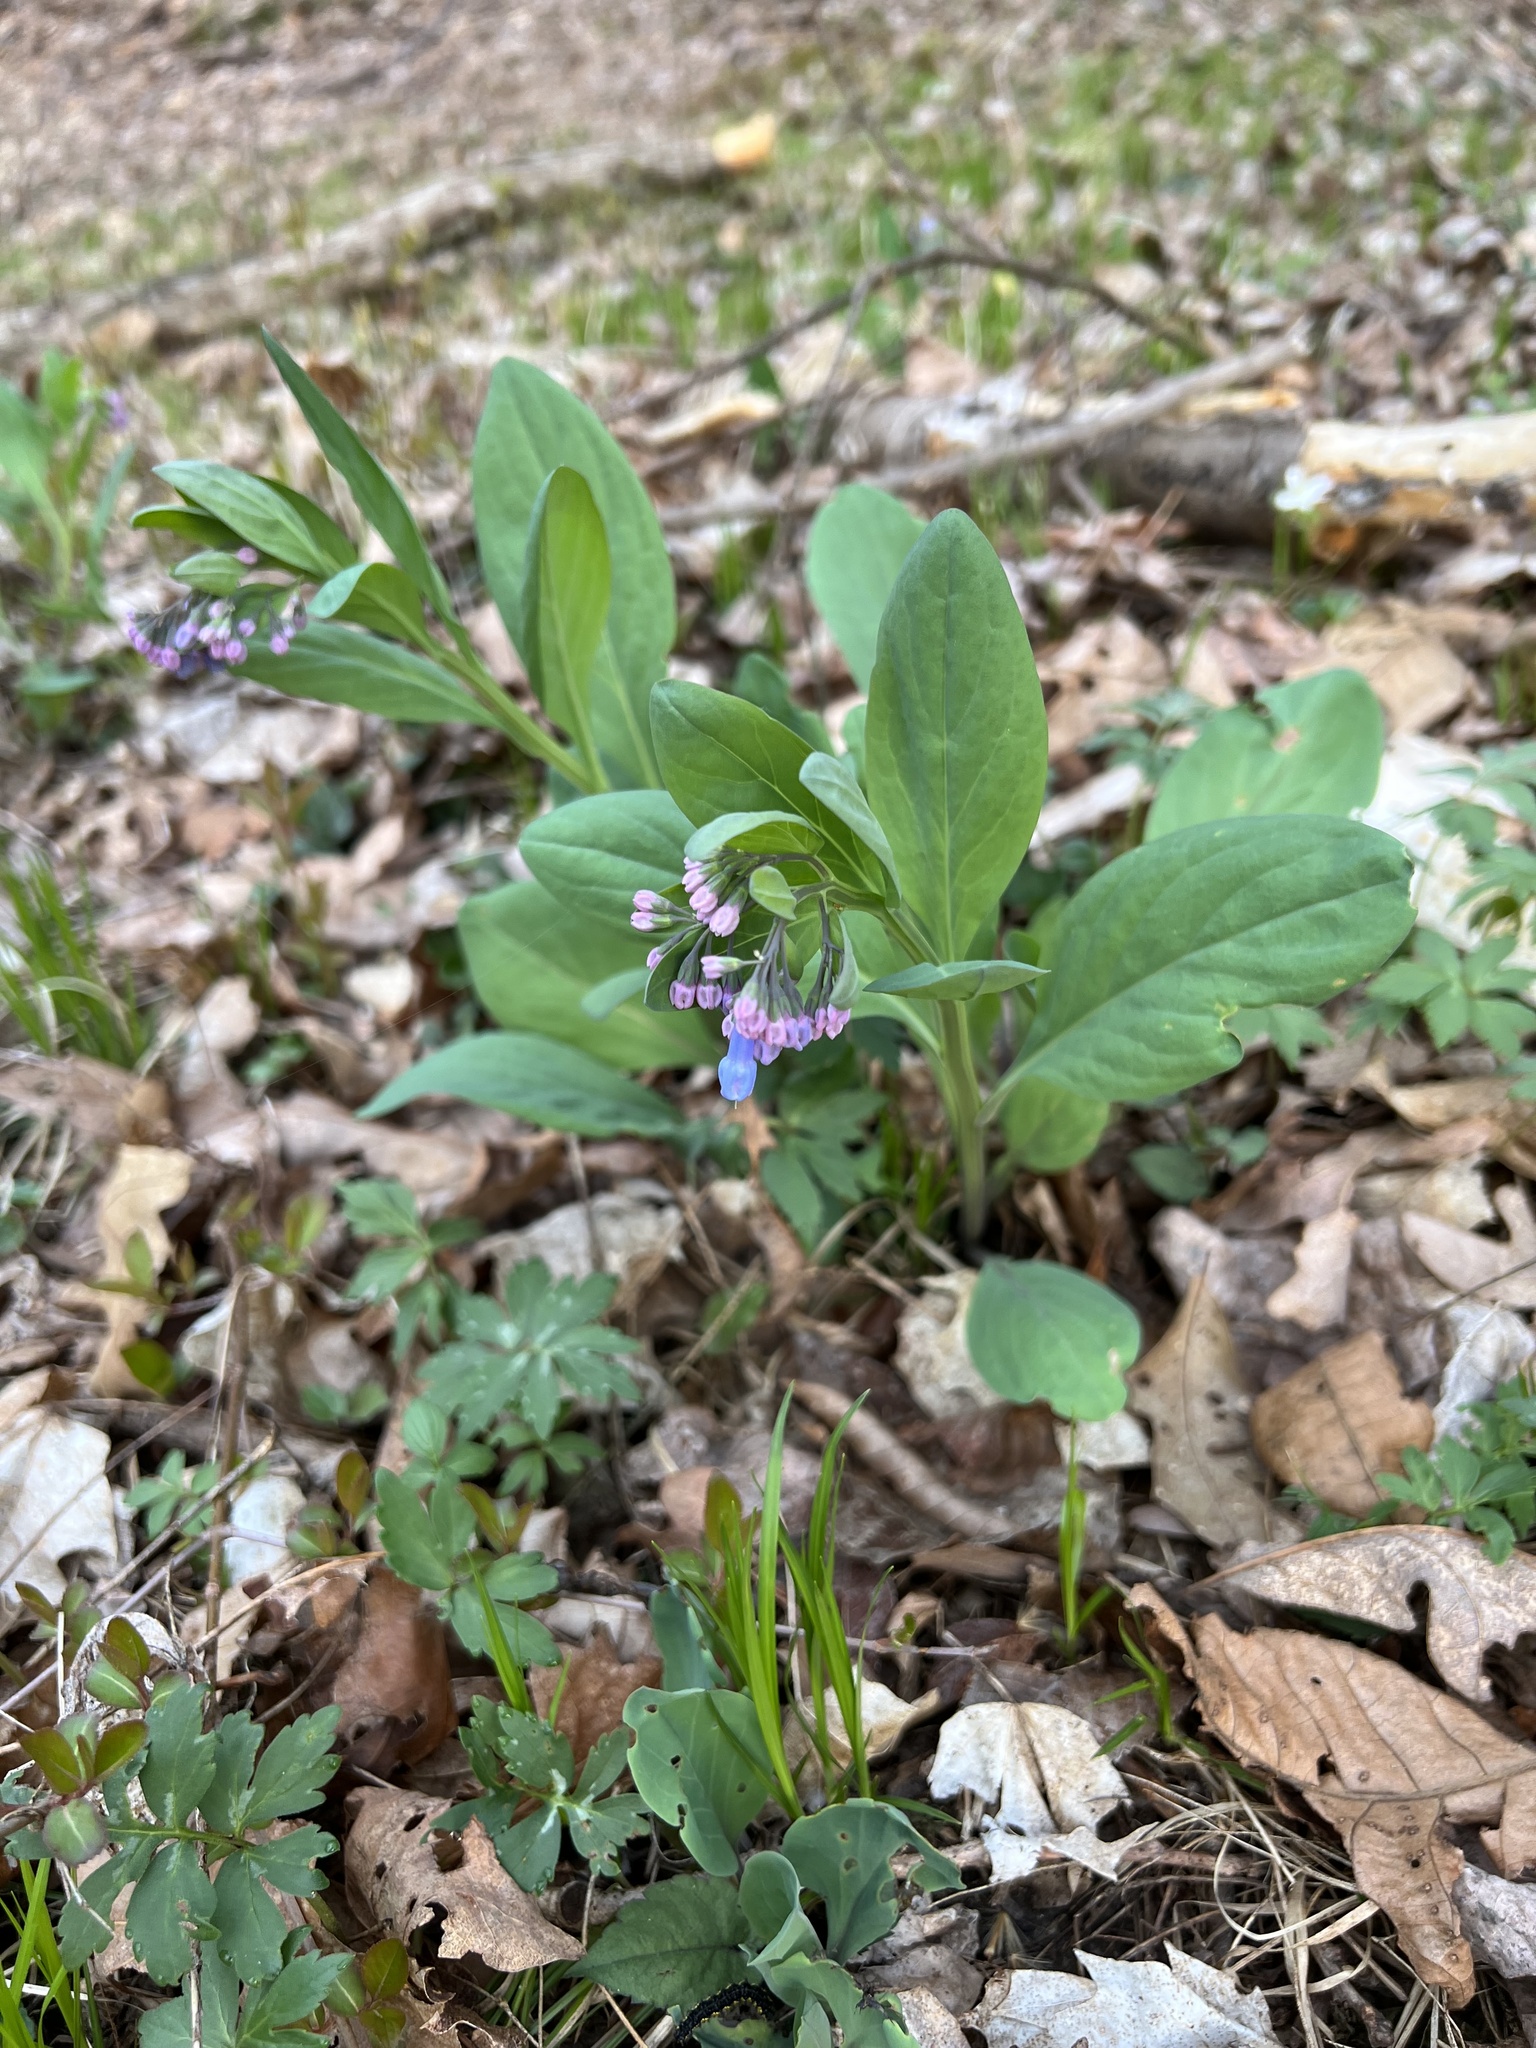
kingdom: Plantae
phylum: Tracheophyta
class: Magnoliopsida
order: Boraginales
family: Boraginaceae
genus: Mertensia
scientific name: Mertensia virginica
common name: Virginia bluebells
